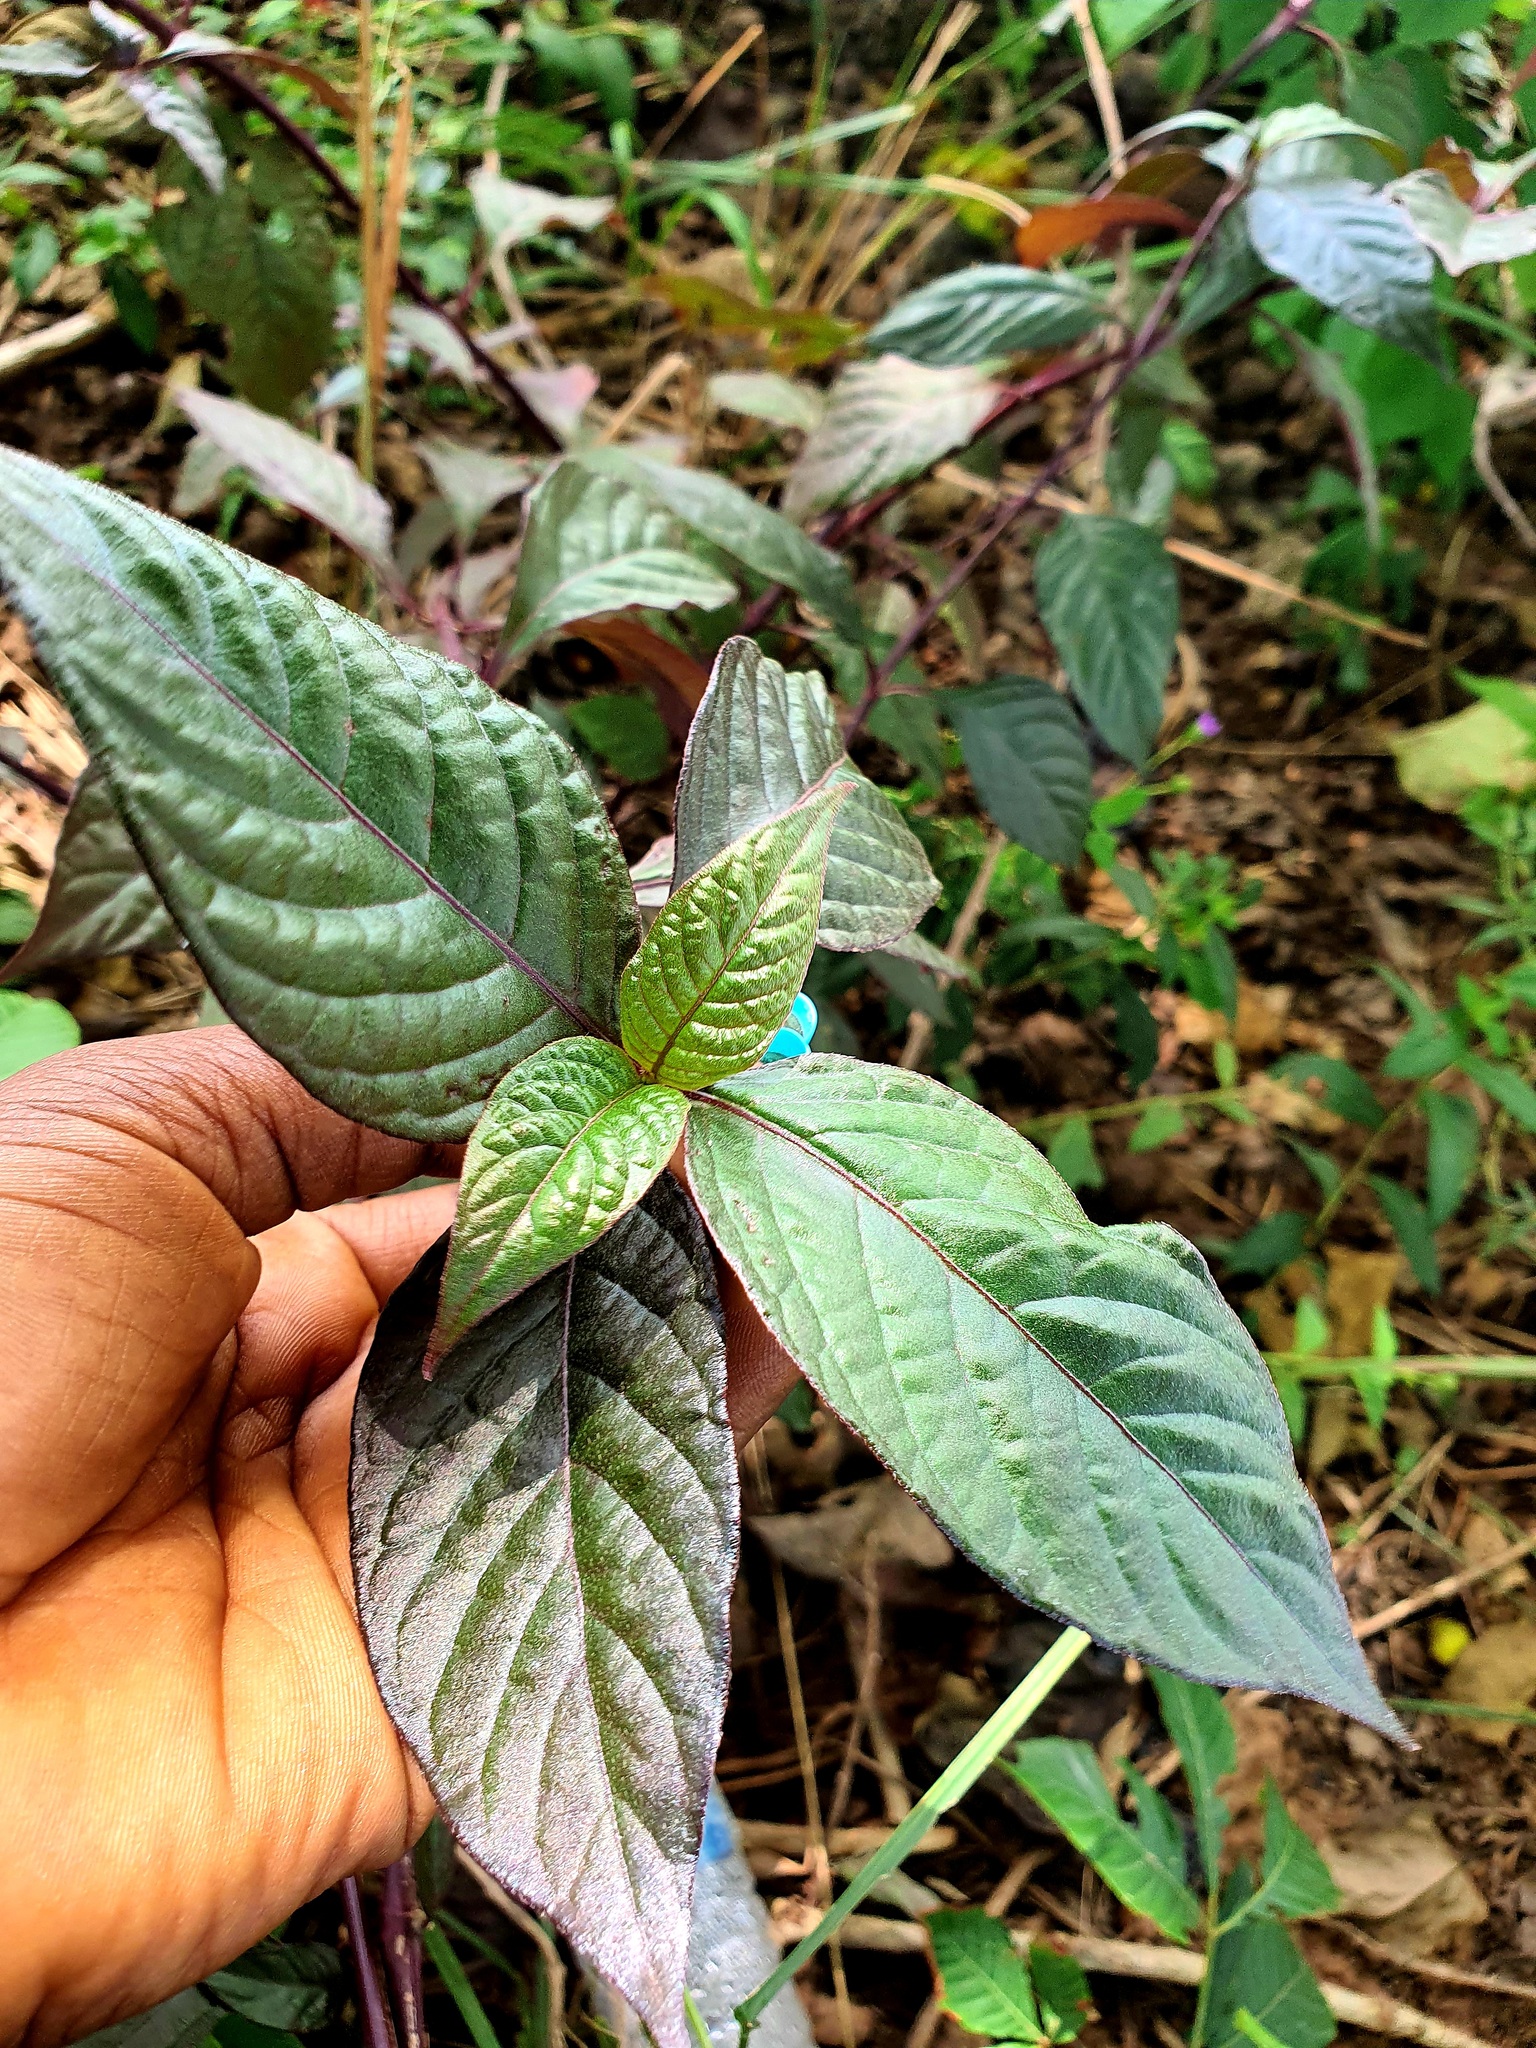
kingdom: Plantae
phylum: Tracheophyta
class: Magnoliopsida
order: Lamiales
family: Acanthaceae
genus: Strobilanthes
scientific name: Strobilanthes alternata
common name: Red ivy
